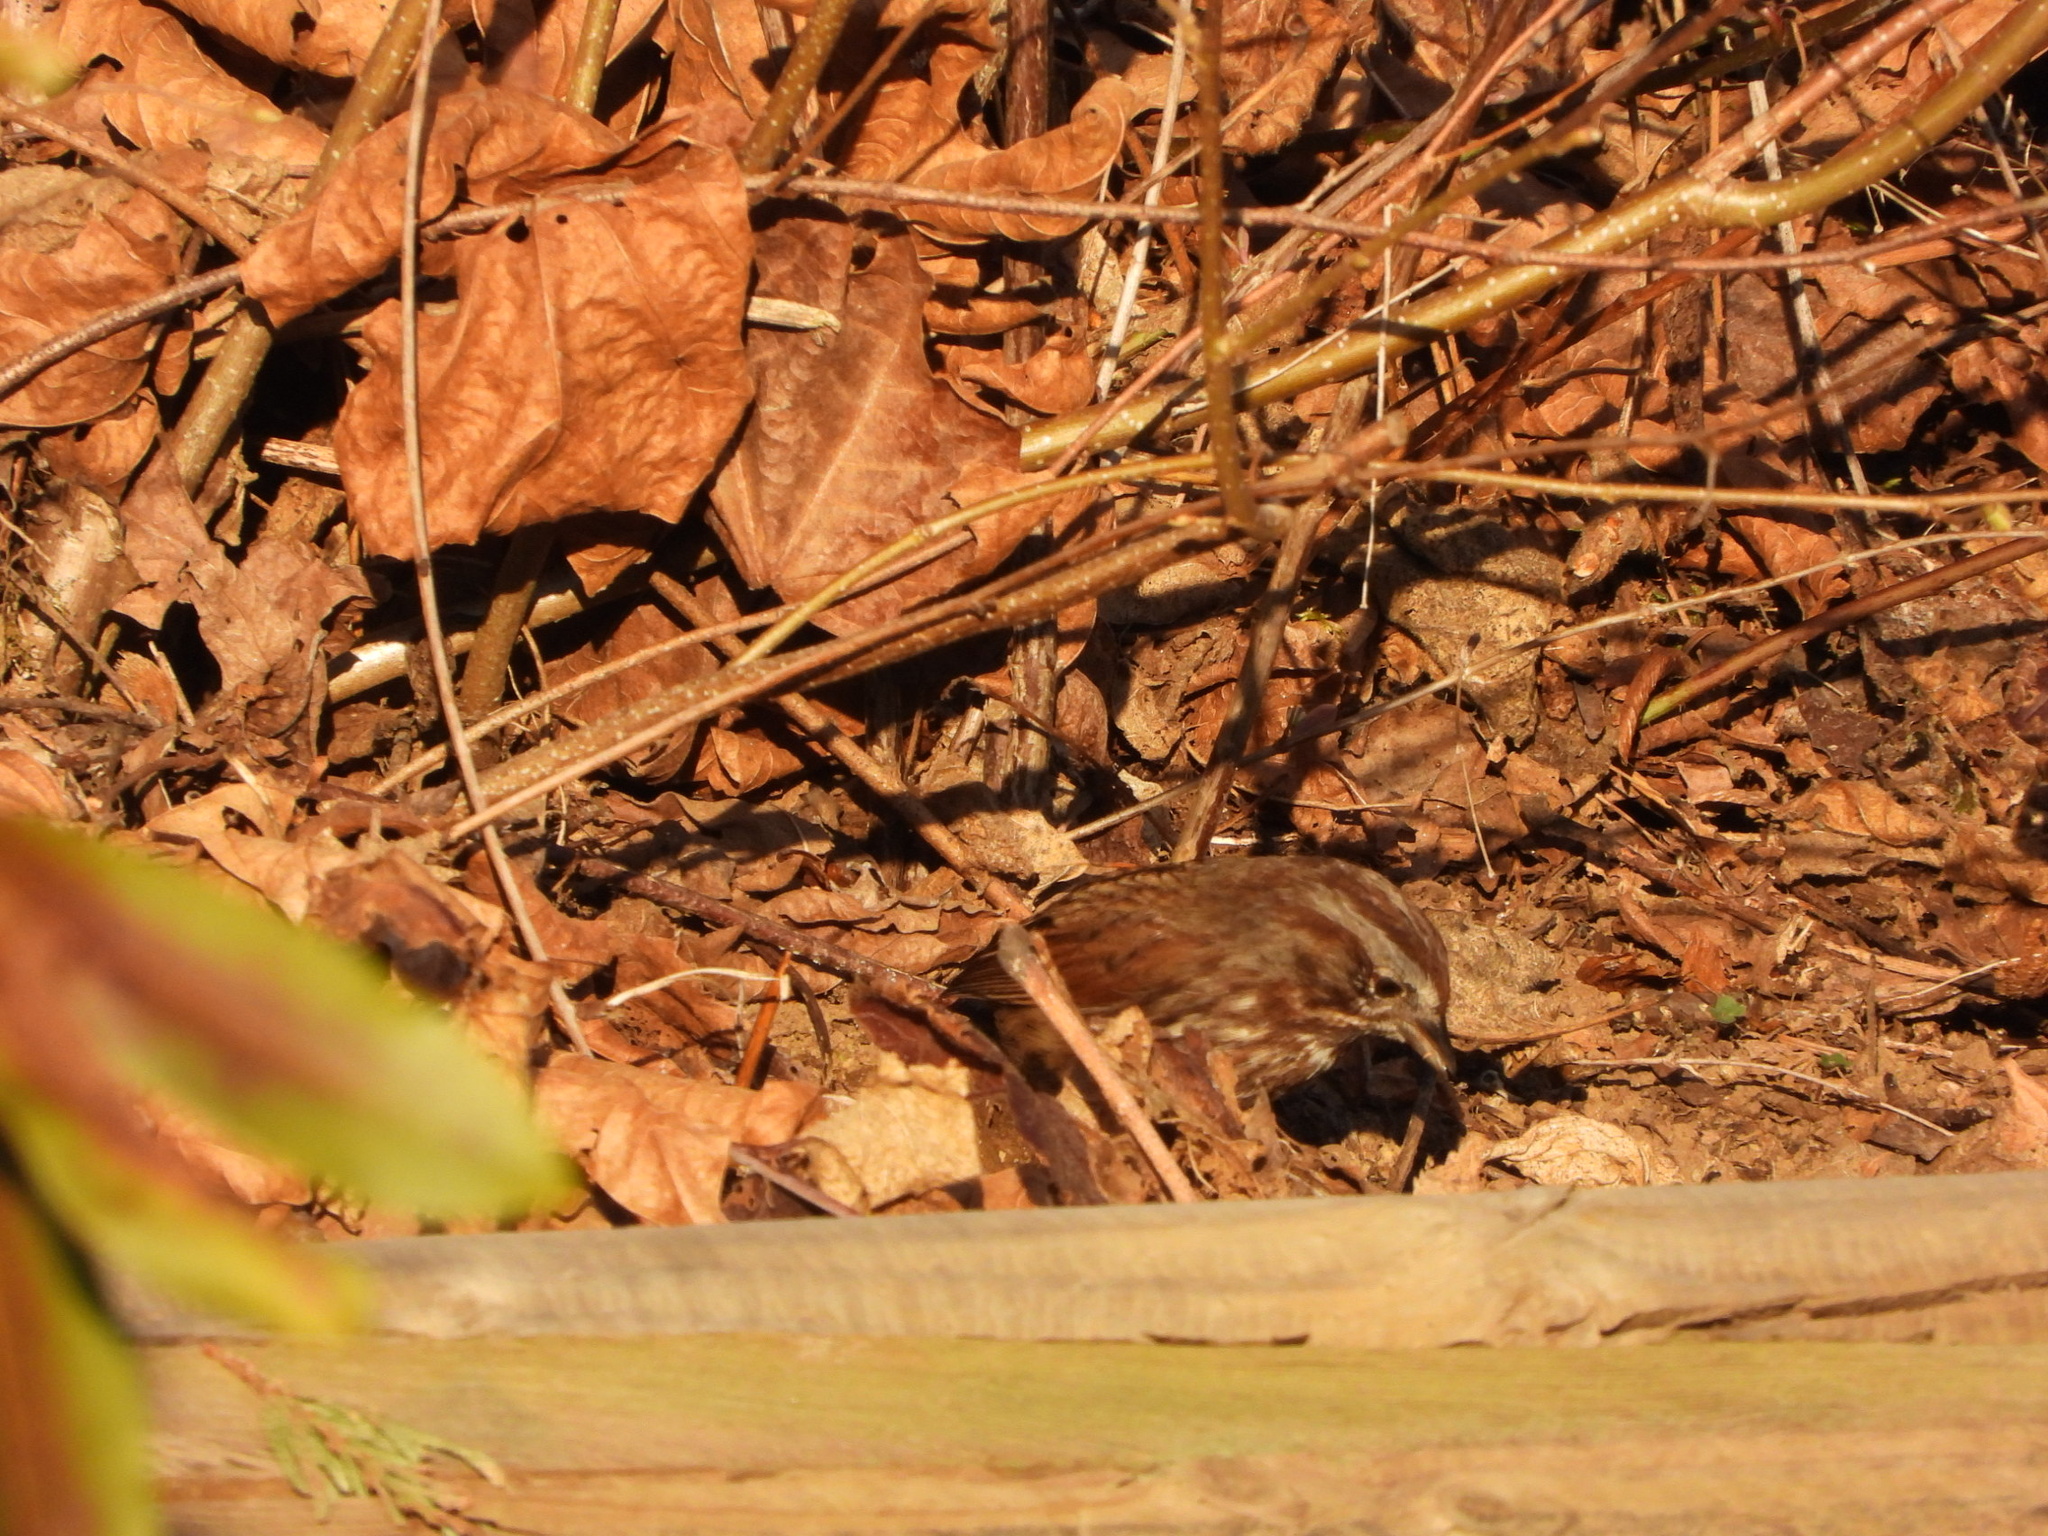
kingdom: Animalia
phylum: Chordata
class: Aves
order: Passeriformes
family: Passerellidae
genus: Melospiza
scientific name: Melospiza melodia
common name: Song sparrow
